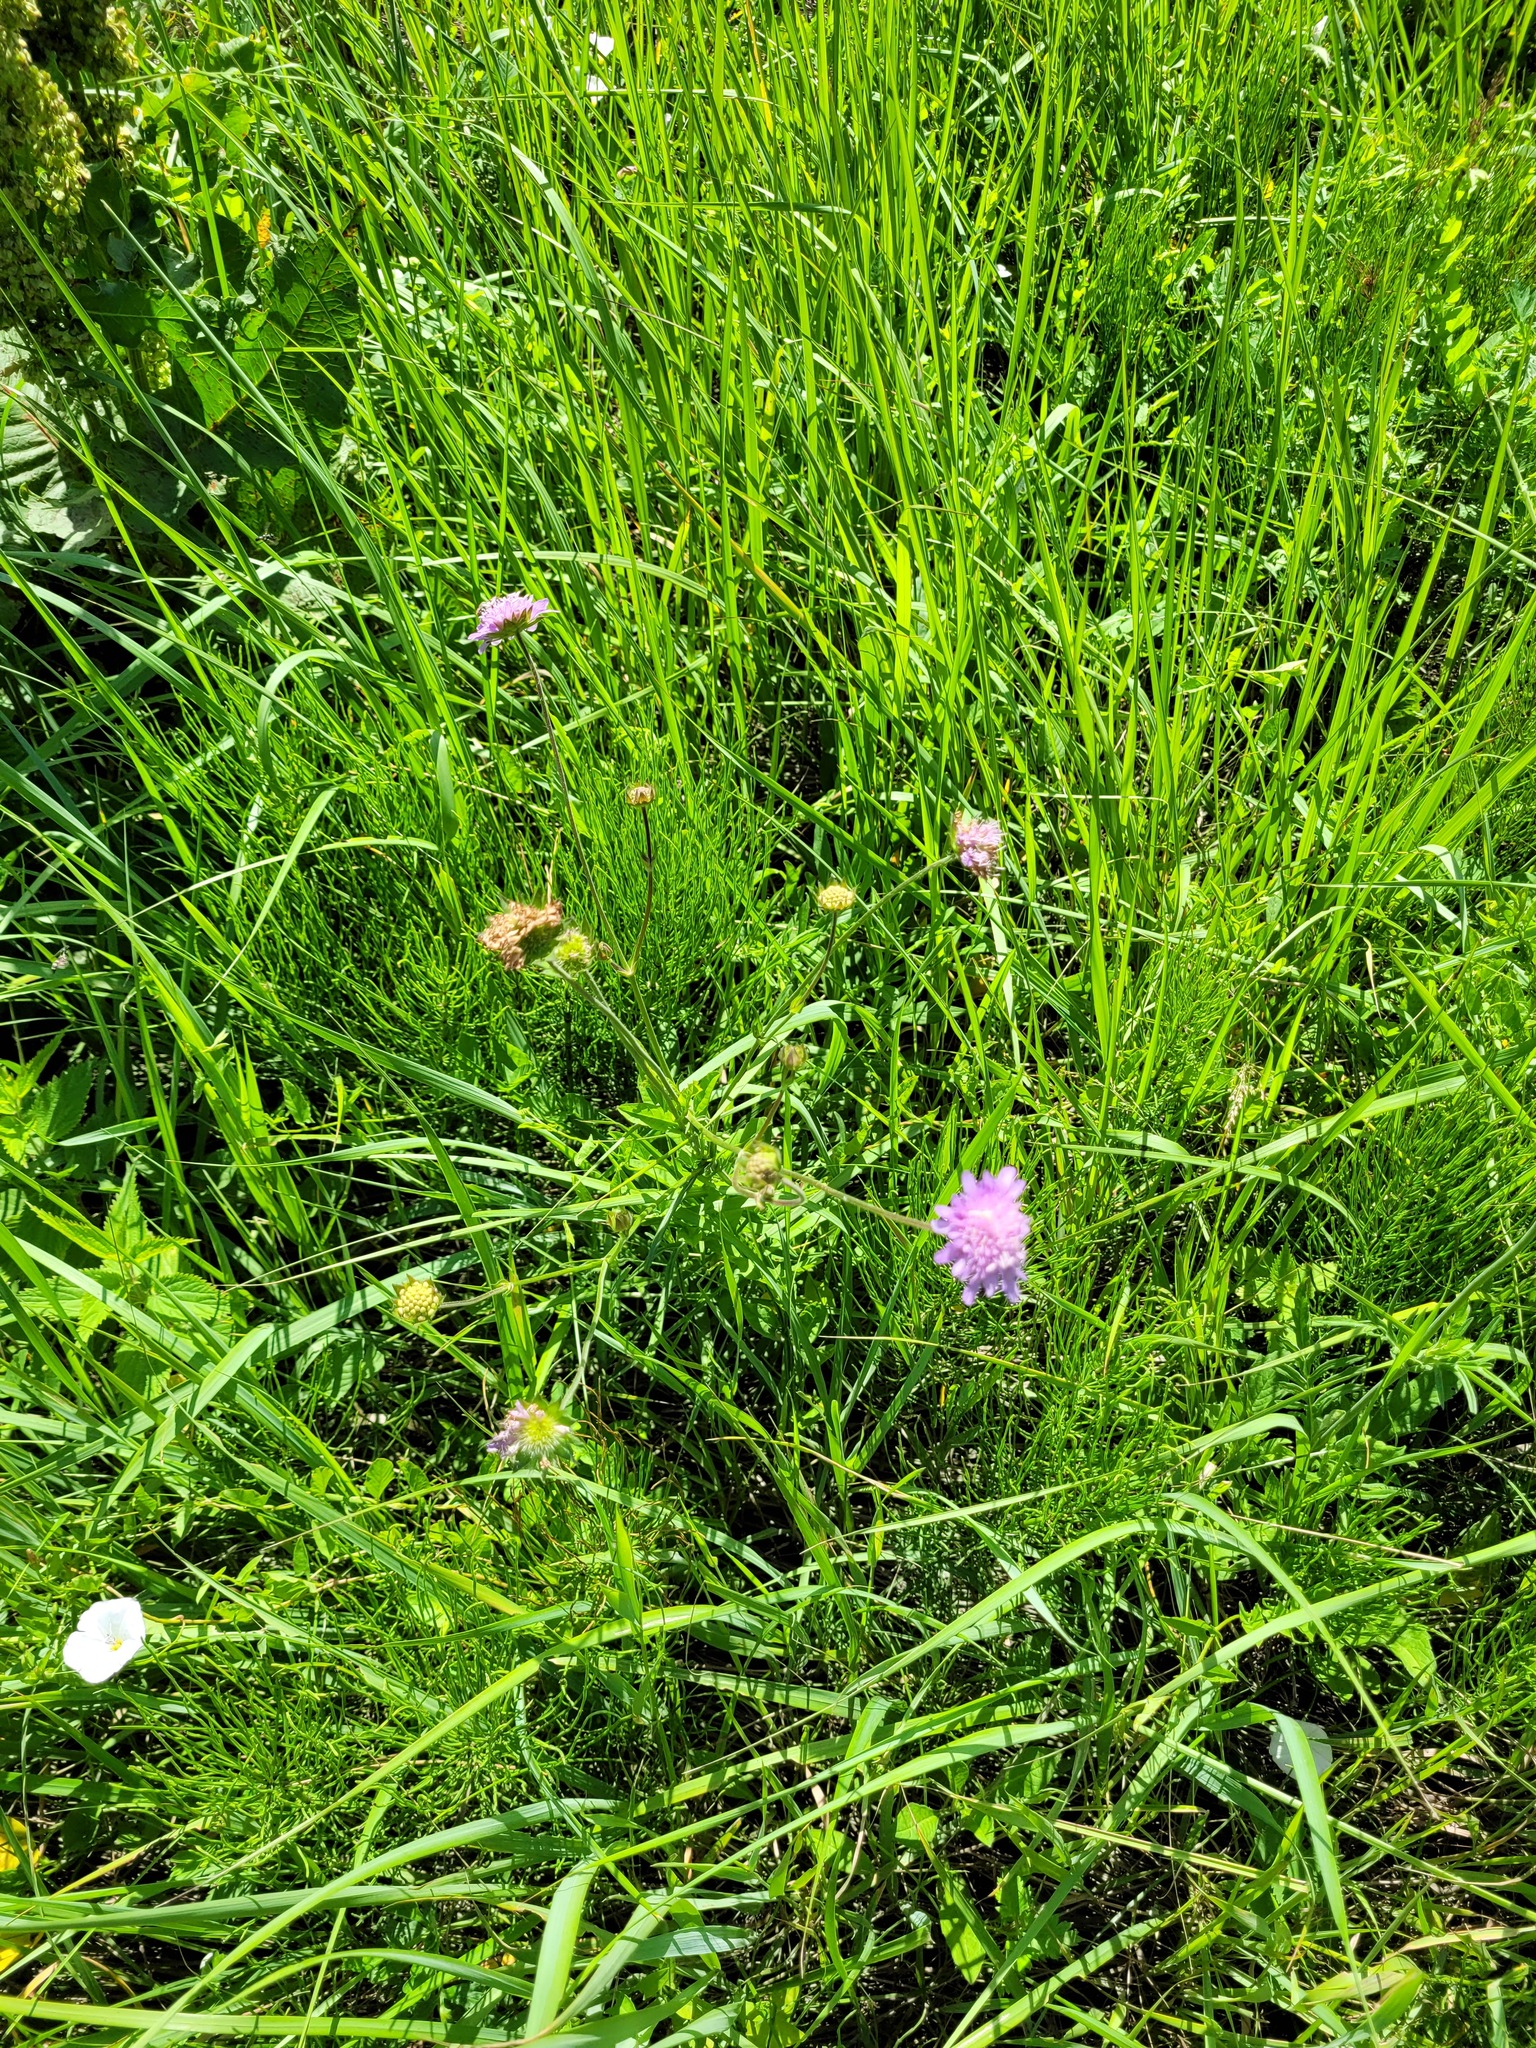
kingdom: Plantae
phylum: Tracheophyta
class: Magnoliopsida
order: Dipsacales
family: Caprifoliaceae
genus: Knautia
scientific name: Knautia arvensis
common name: Field scabiosa
